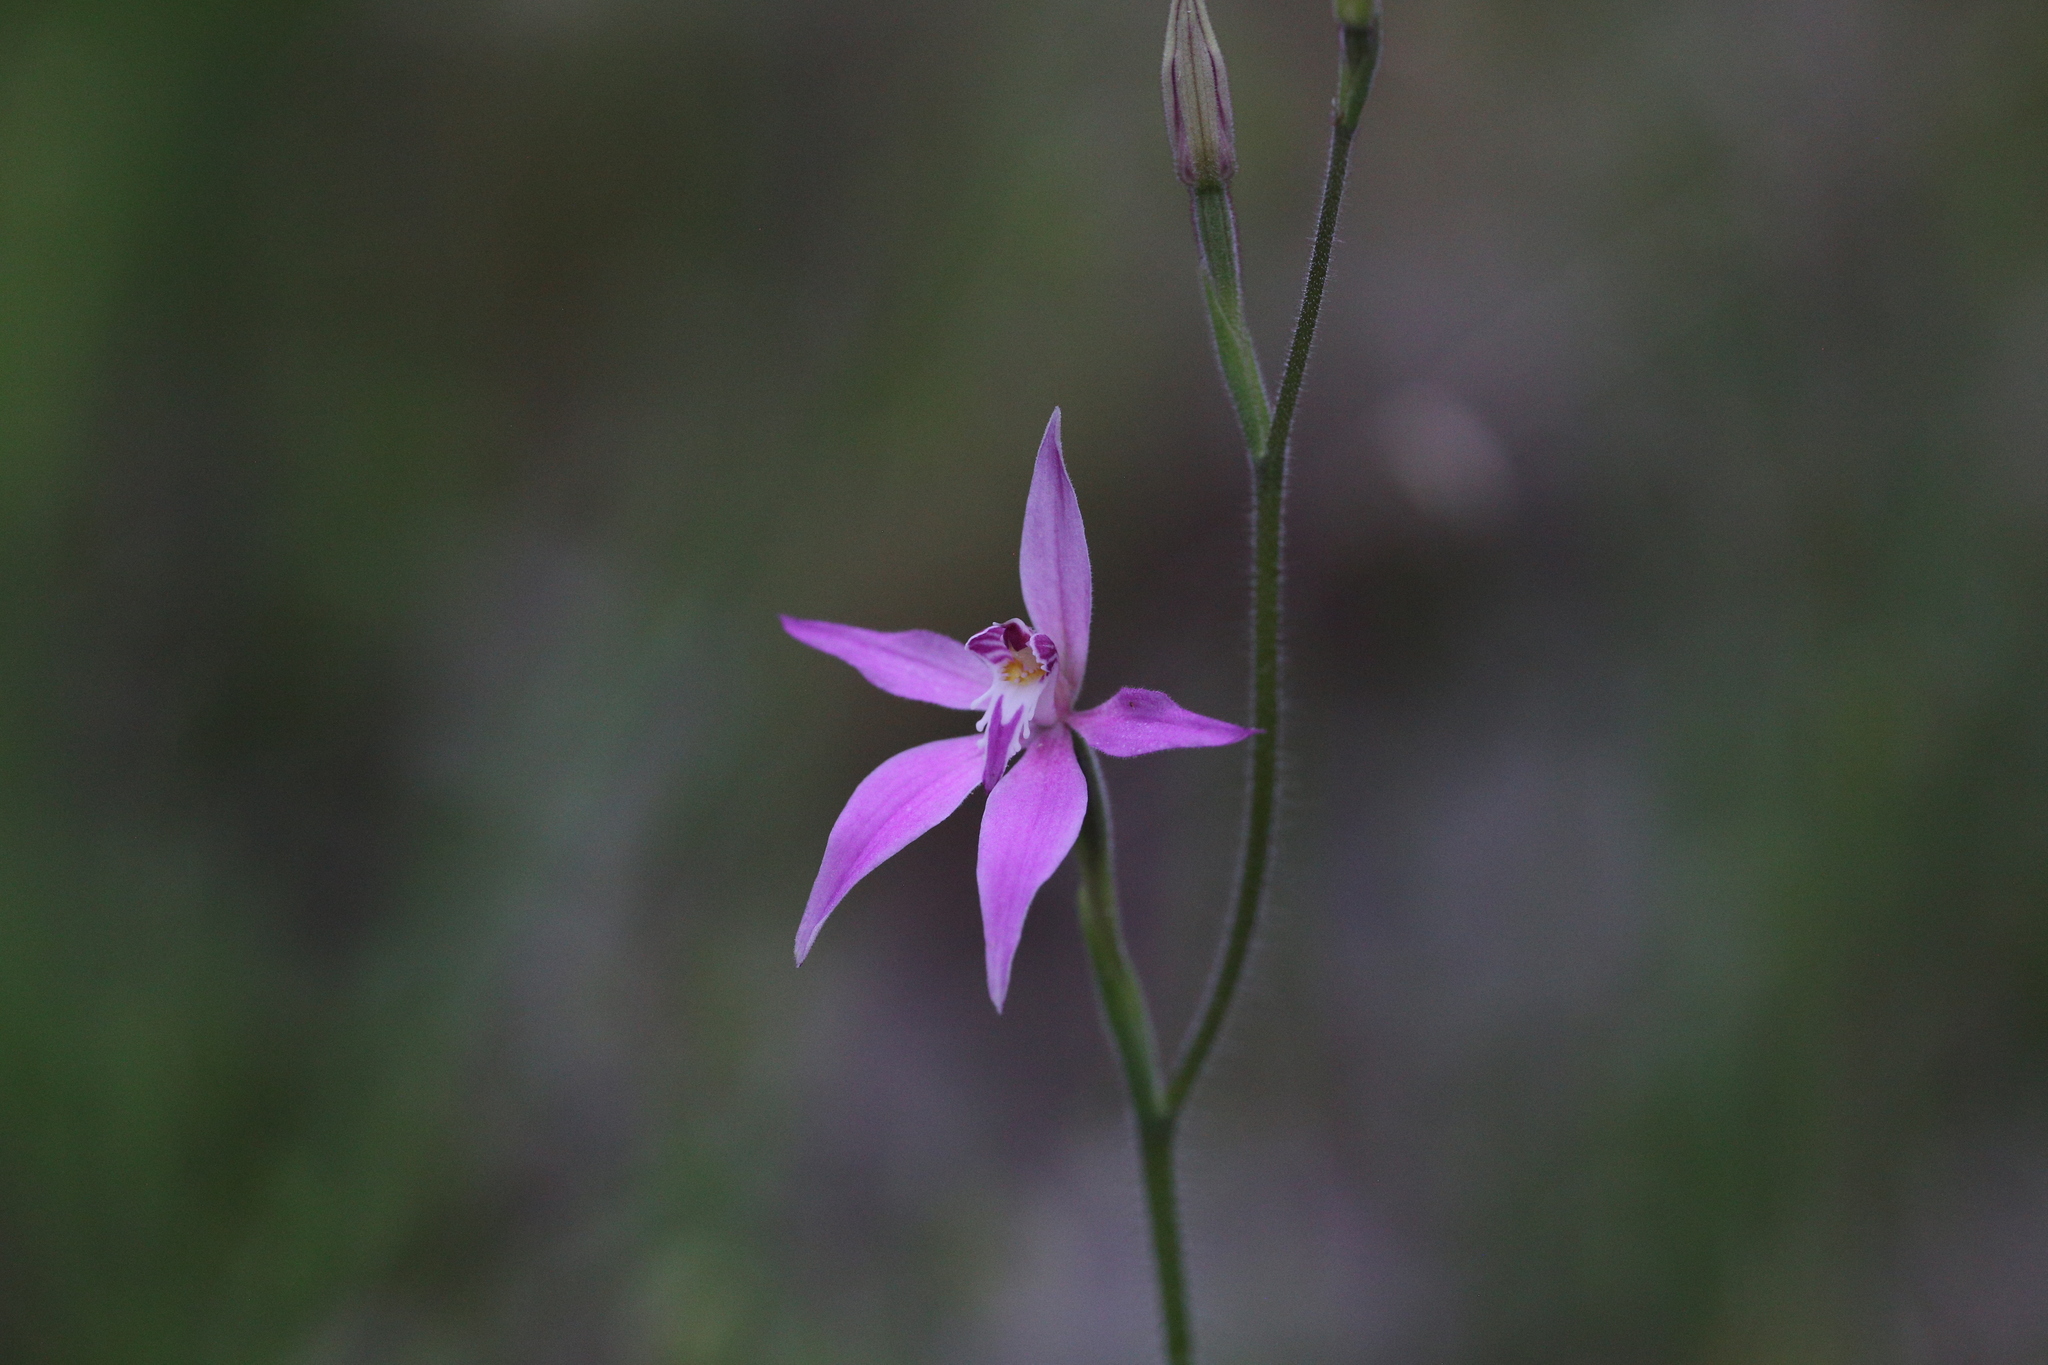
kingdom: Plantae
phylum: Tracheophyta
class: Liliopsida
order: Asparagales
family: Orchidaceae
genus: Caladenia
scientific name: Caladenia latifolia
